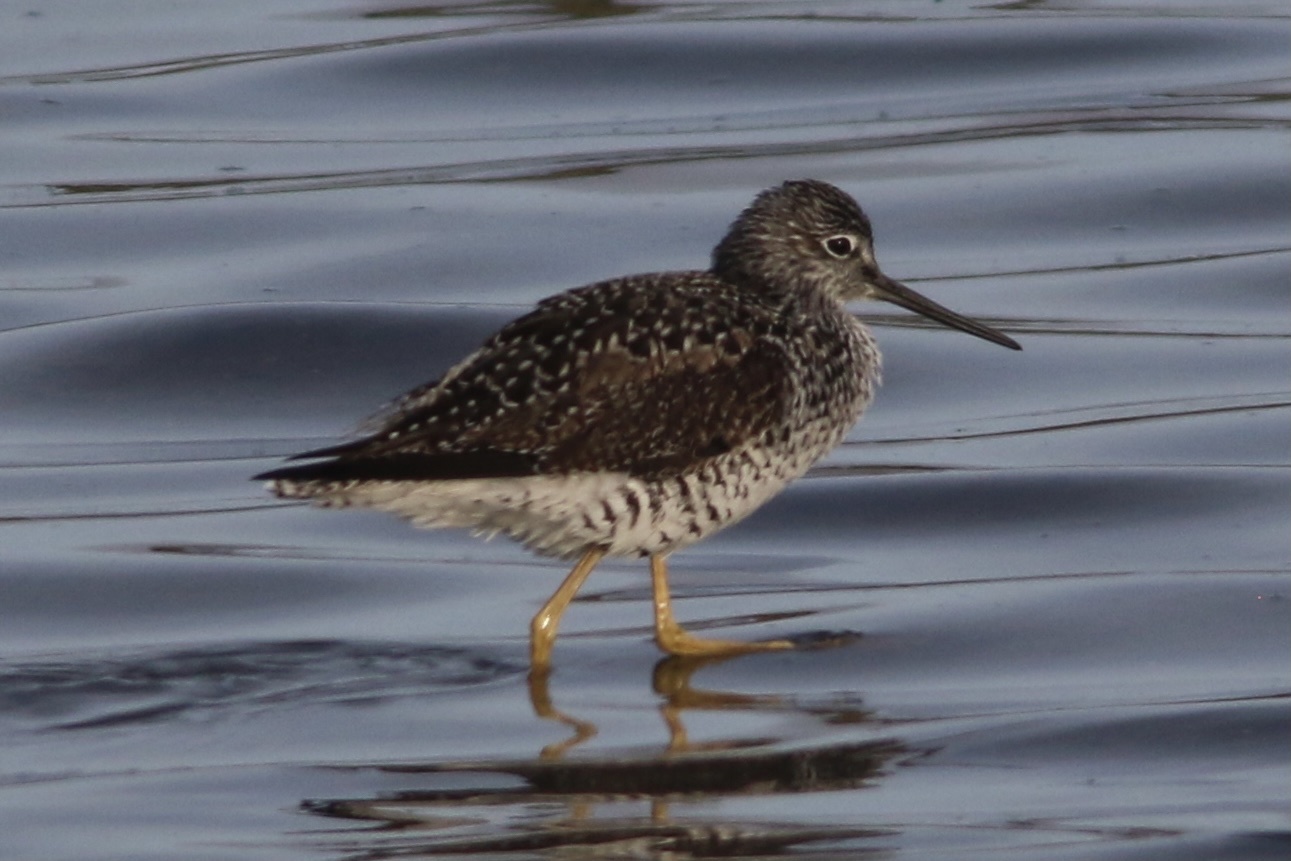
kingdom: Animalia
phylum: Chordata
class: Aves
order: Charadriiformes
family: Scolopacidae
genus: Tringa
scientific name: Tringa melanoleuca
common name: Greater yellowlegs
